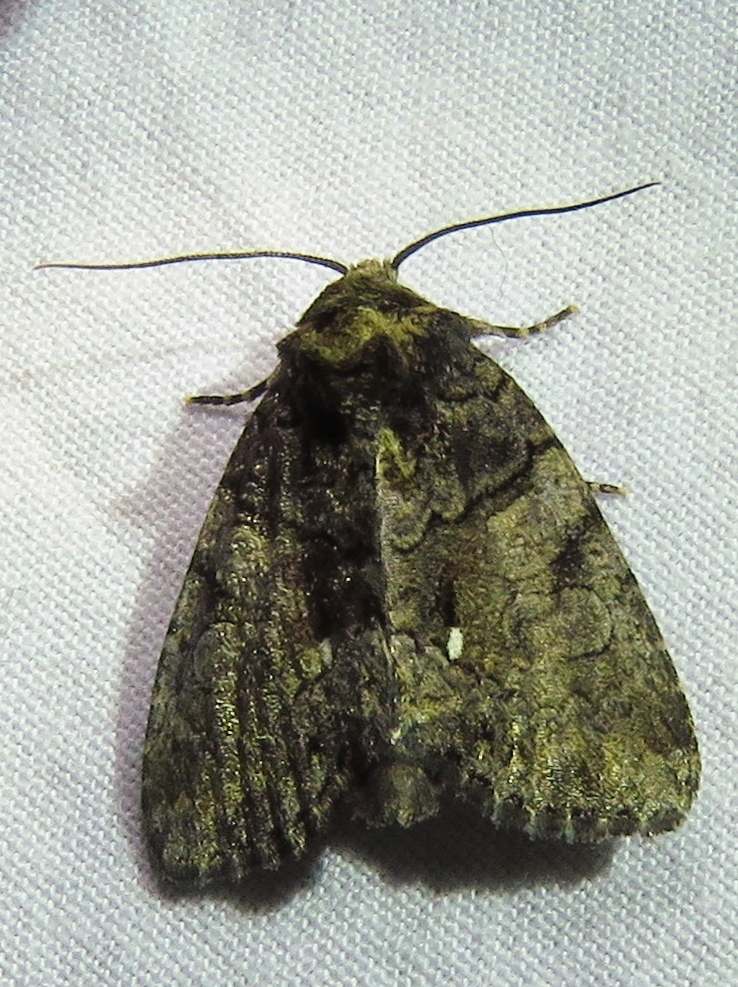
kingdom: Animalia
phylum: Arthropoda
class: Insecta
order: Lepidoptera
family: Noctuidae
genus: Chytonix
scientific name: Chytonix palliatricula
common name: Cloaked marvel
